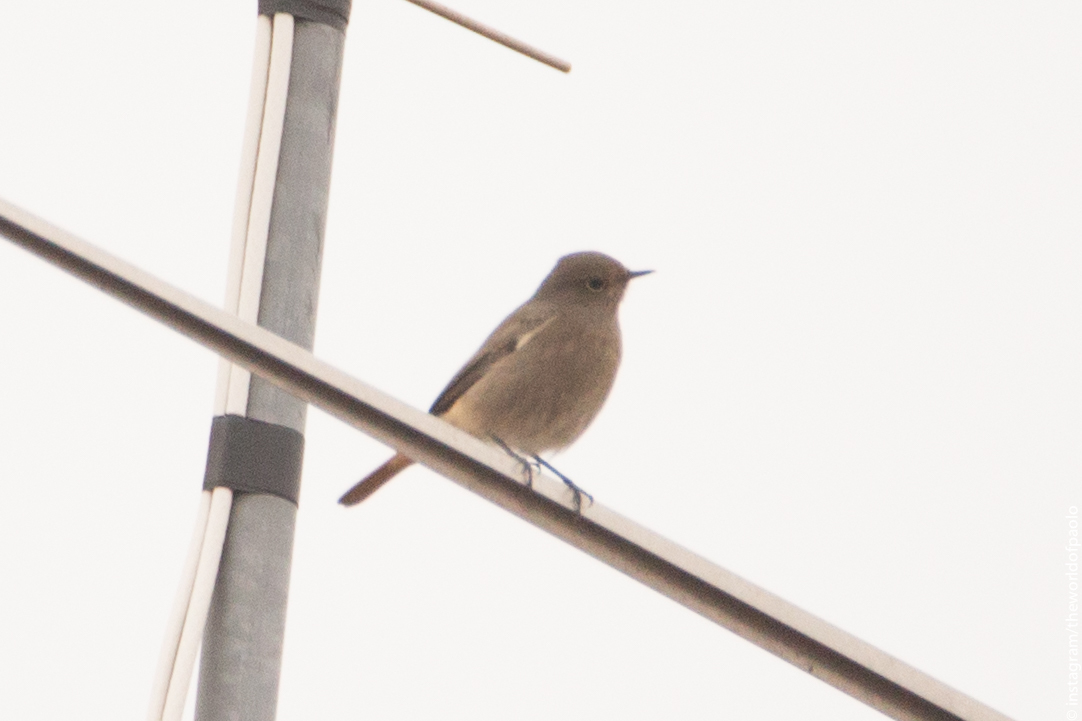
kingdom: Animalia
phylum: Chordata
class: Aves
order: Passeriformes
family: Muscicapidae
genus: Phoenicurus
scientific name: Phoenicurus ochruros
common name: Black redstart
